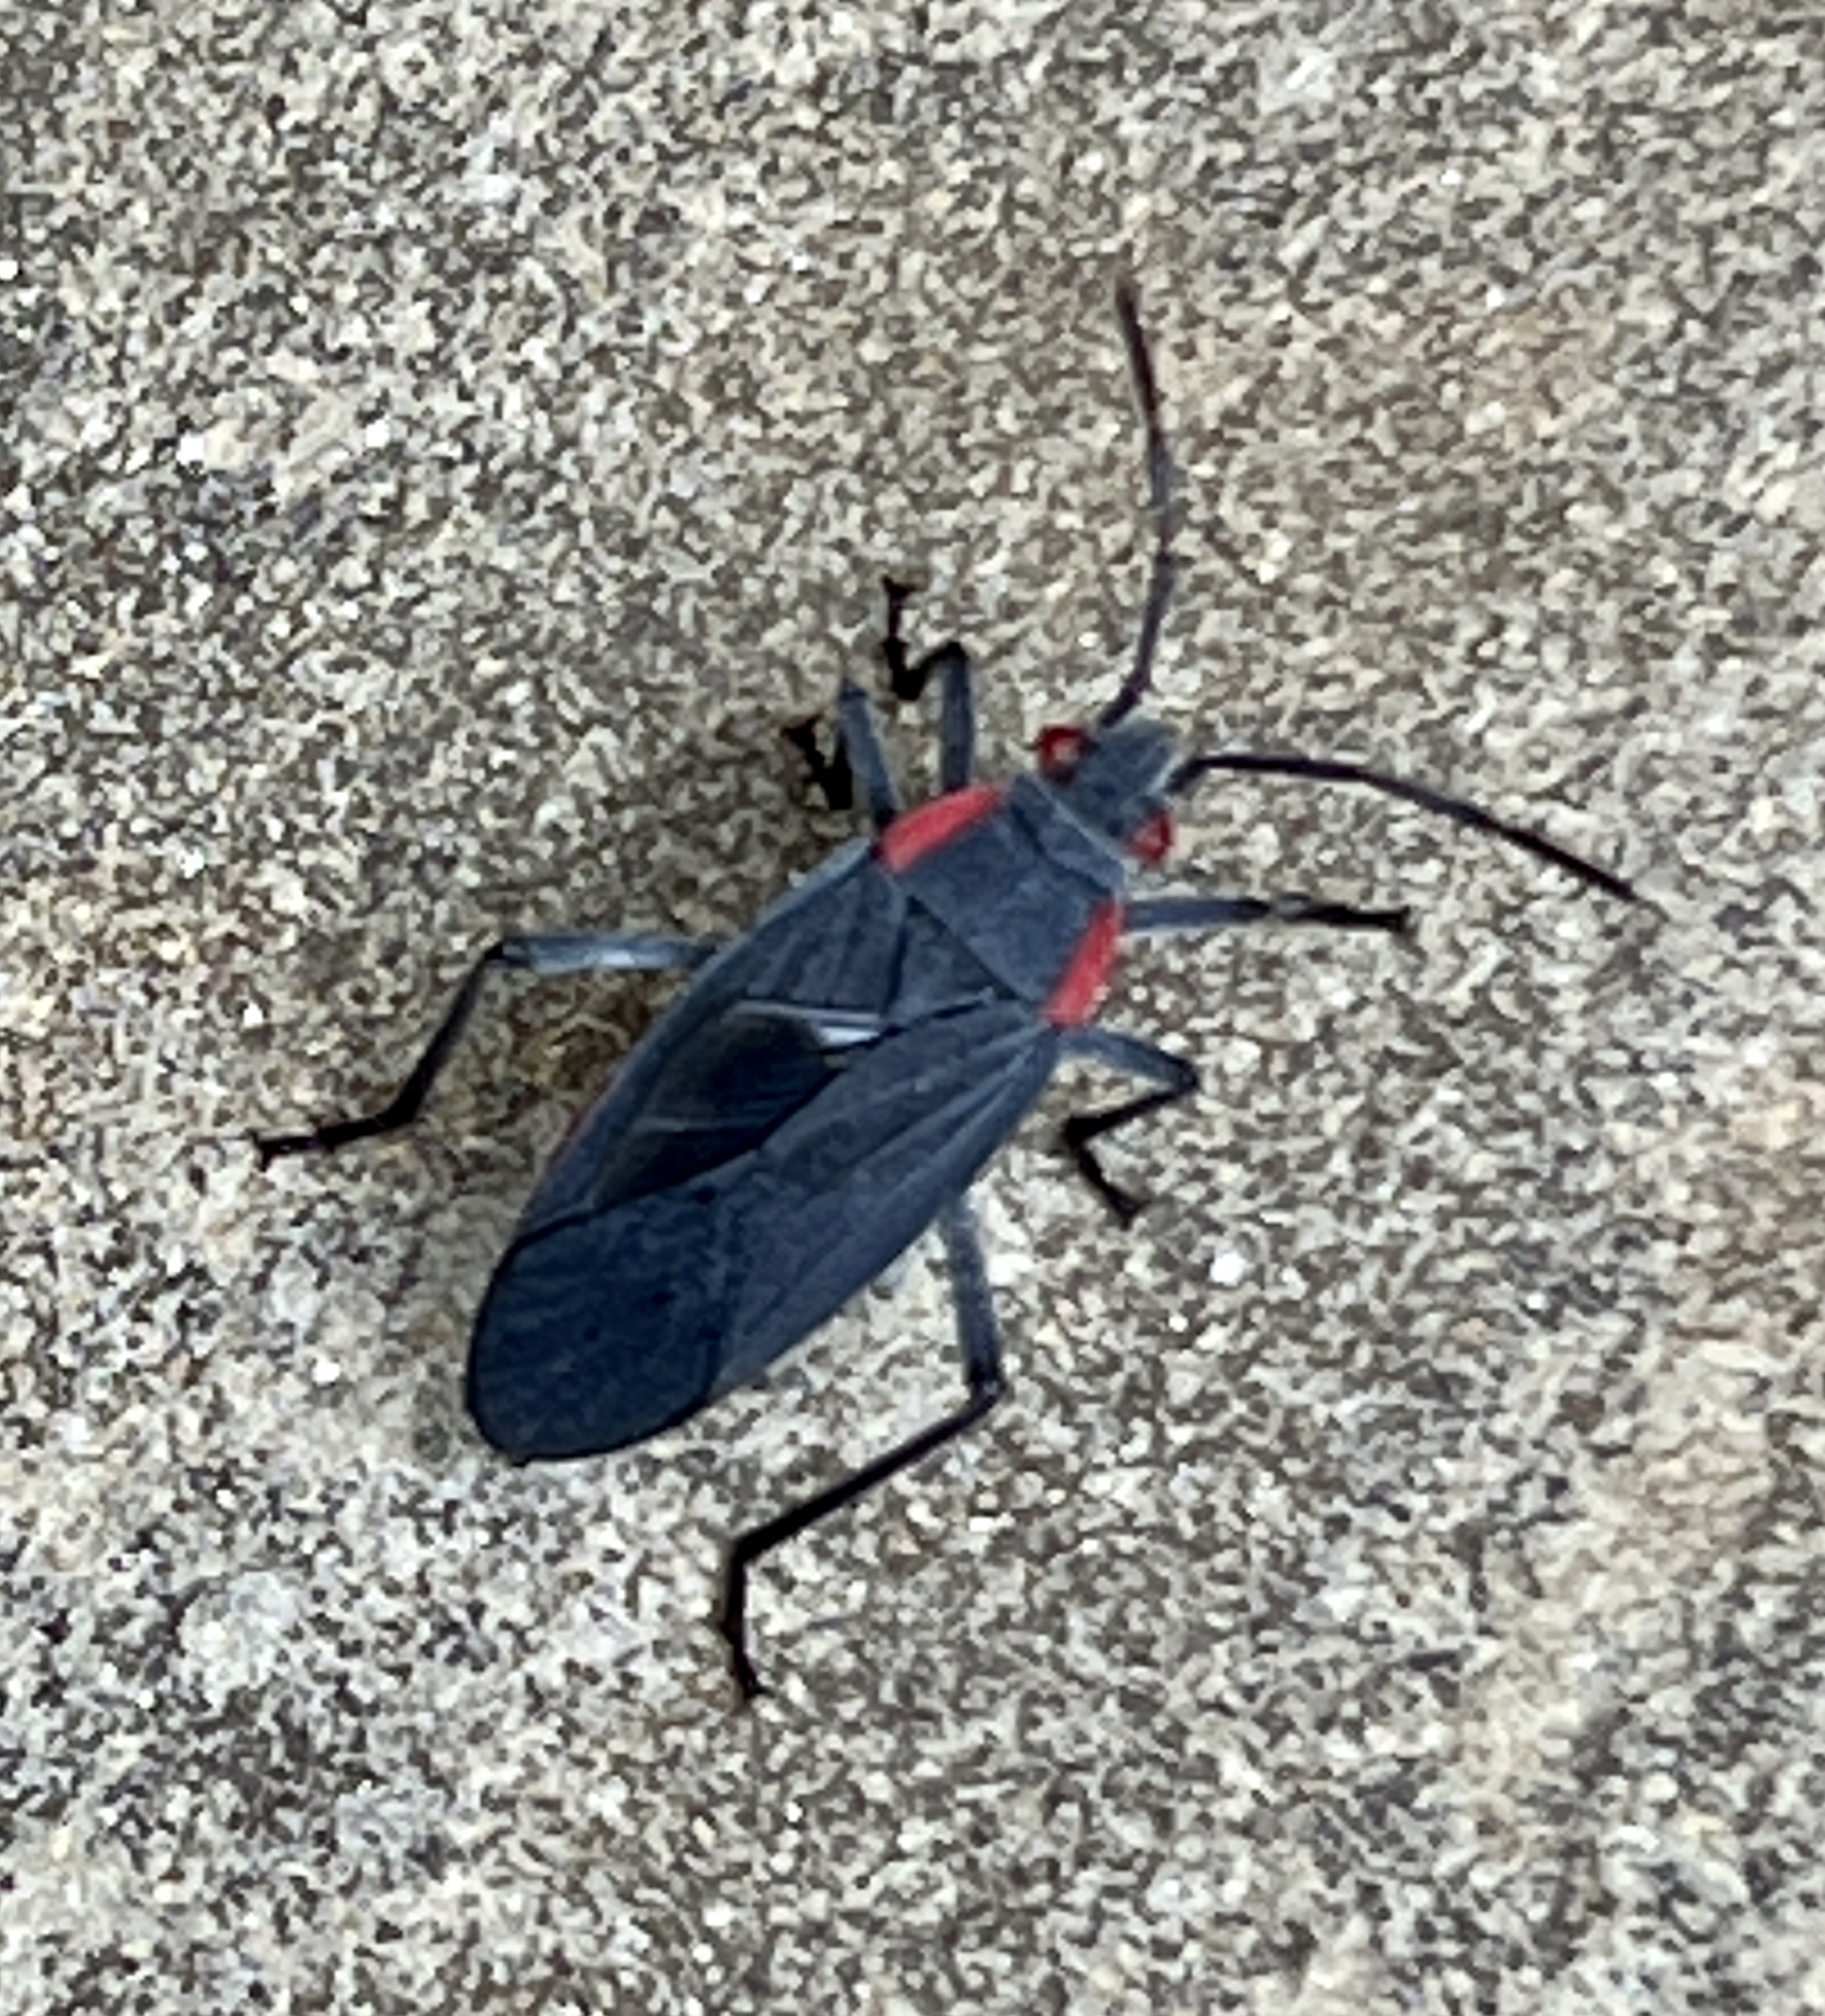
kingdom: Animalia
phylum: Arthropoda
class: Insecta
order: Hemiptera
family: Rhopalidae
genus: Jadera
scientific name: Jadera haematoloma
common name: Red-shouldered bug
